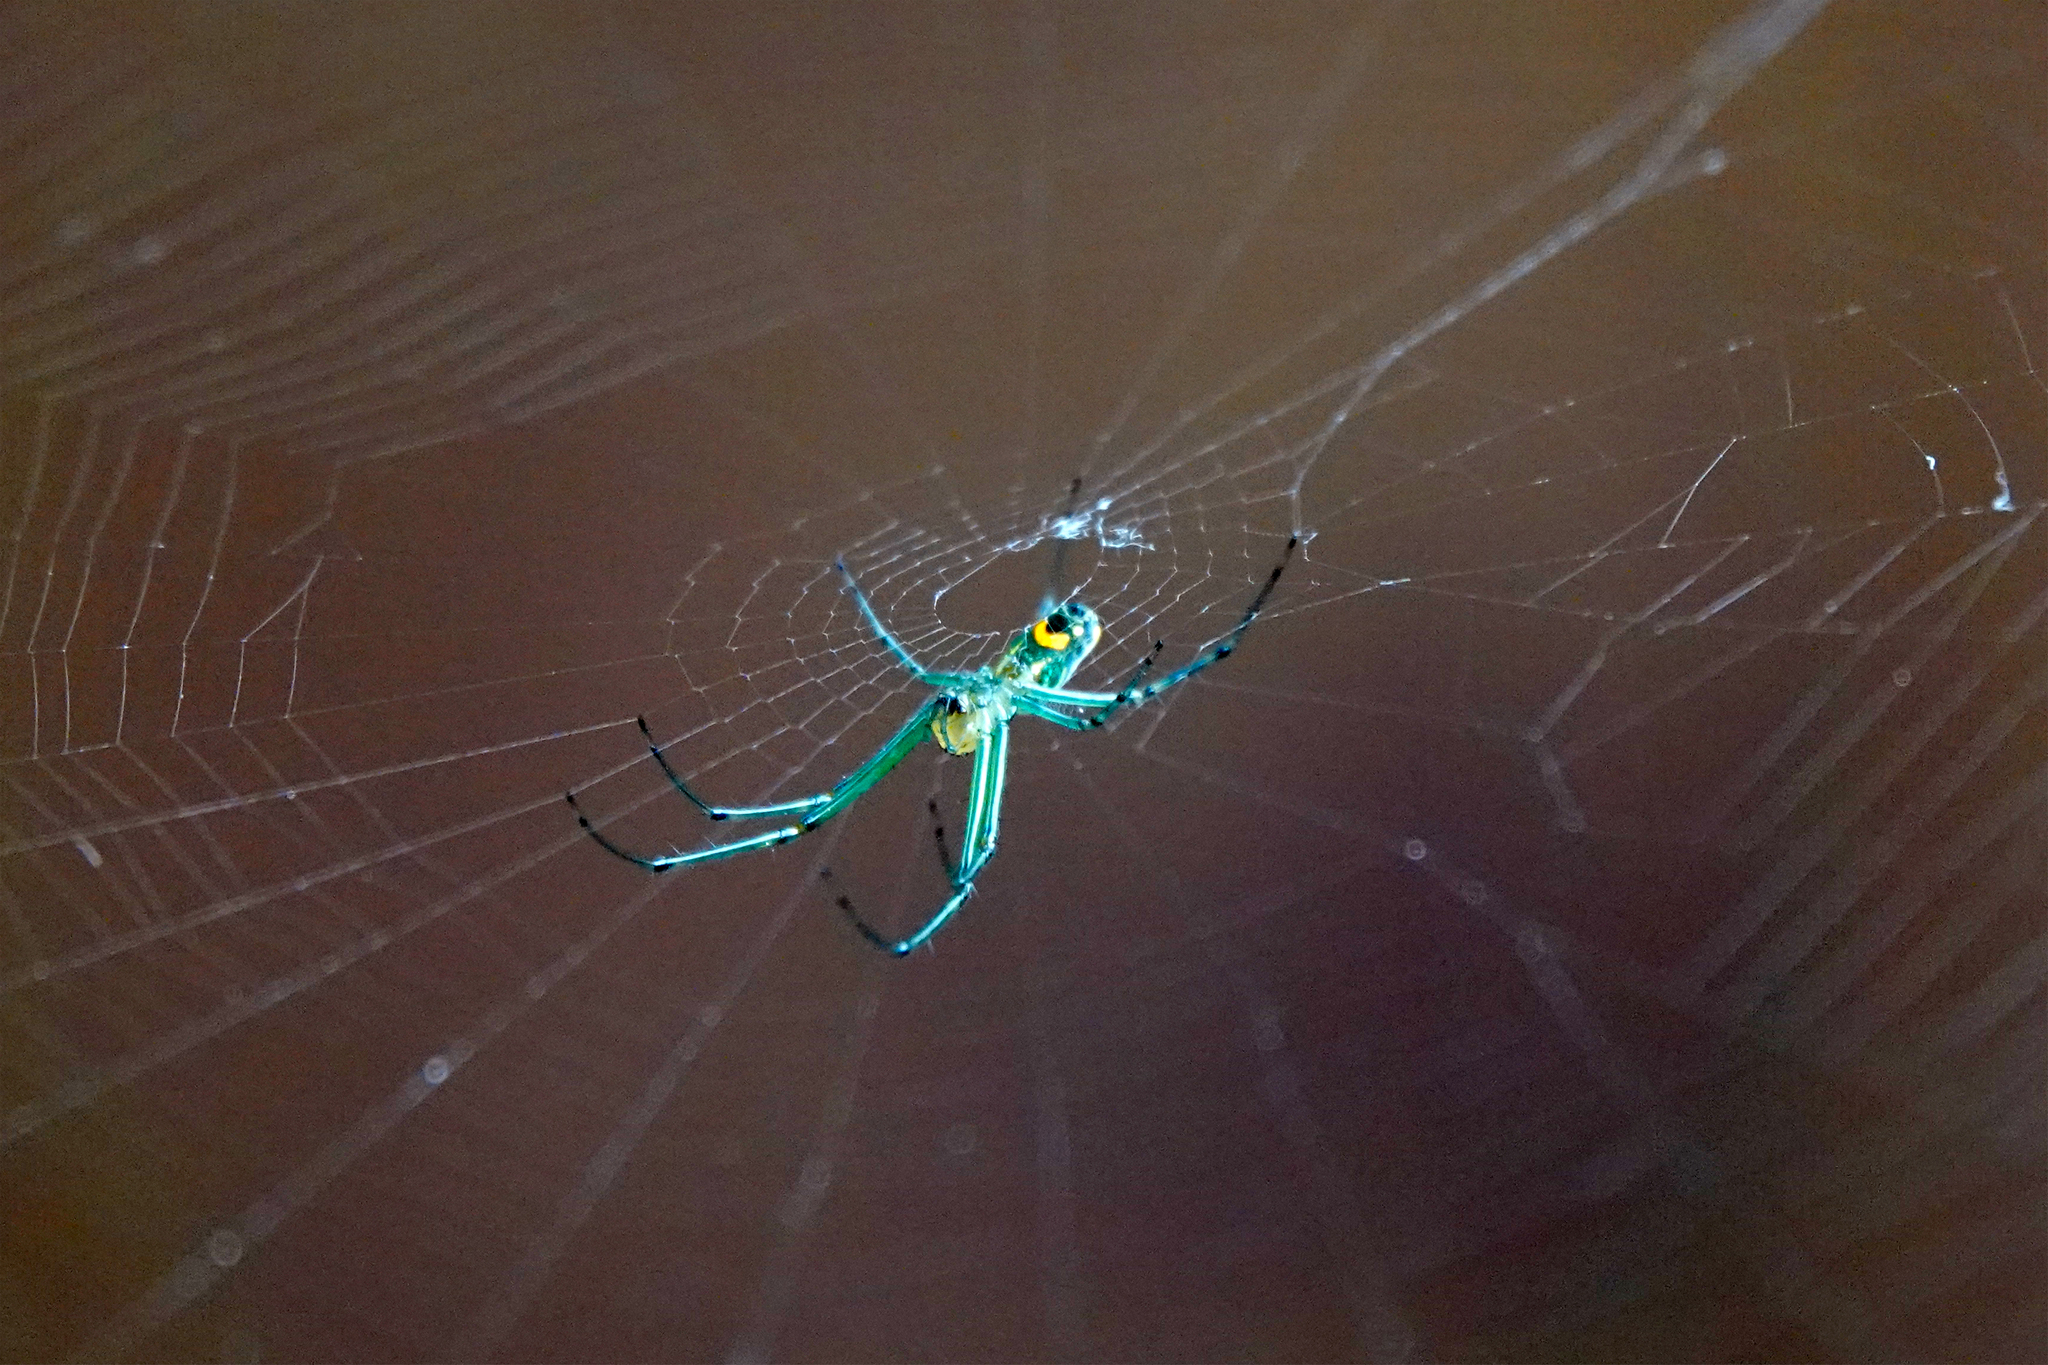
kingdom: Animalia
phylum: Arthropoda
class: Arachnida
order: Araneae
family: Tetragnathidae
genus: Leucauge
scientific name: Leucauge argyrobapta
